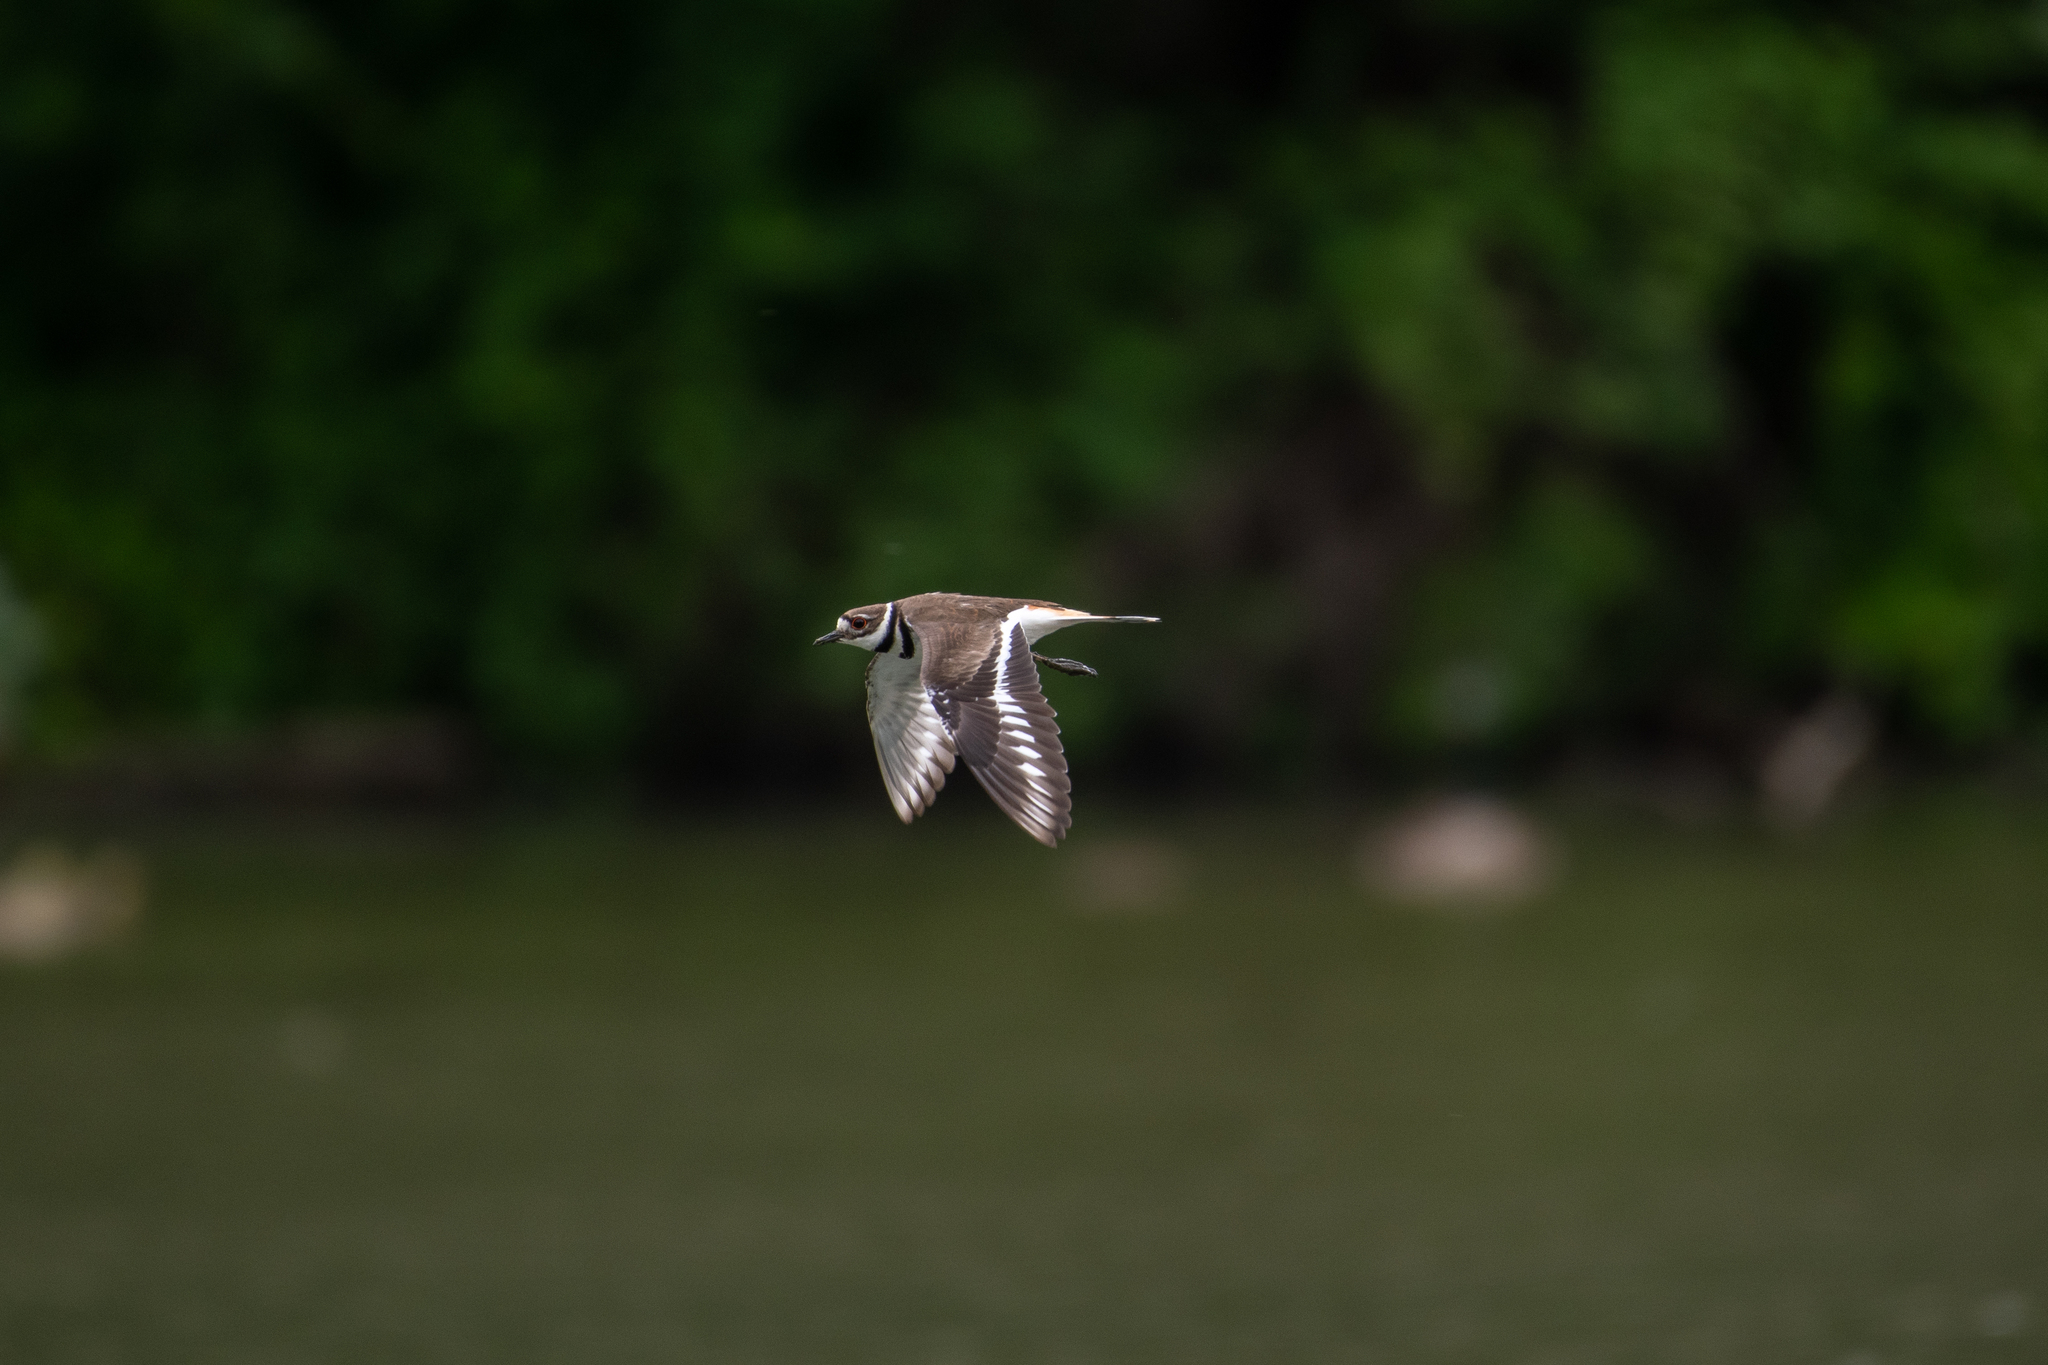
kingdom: Animalia
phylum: Chordata
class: Aves
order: Charadriiformes
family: Charadriidae
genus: Charadrius
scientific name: Charadrius vociferus
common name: Killdeer
